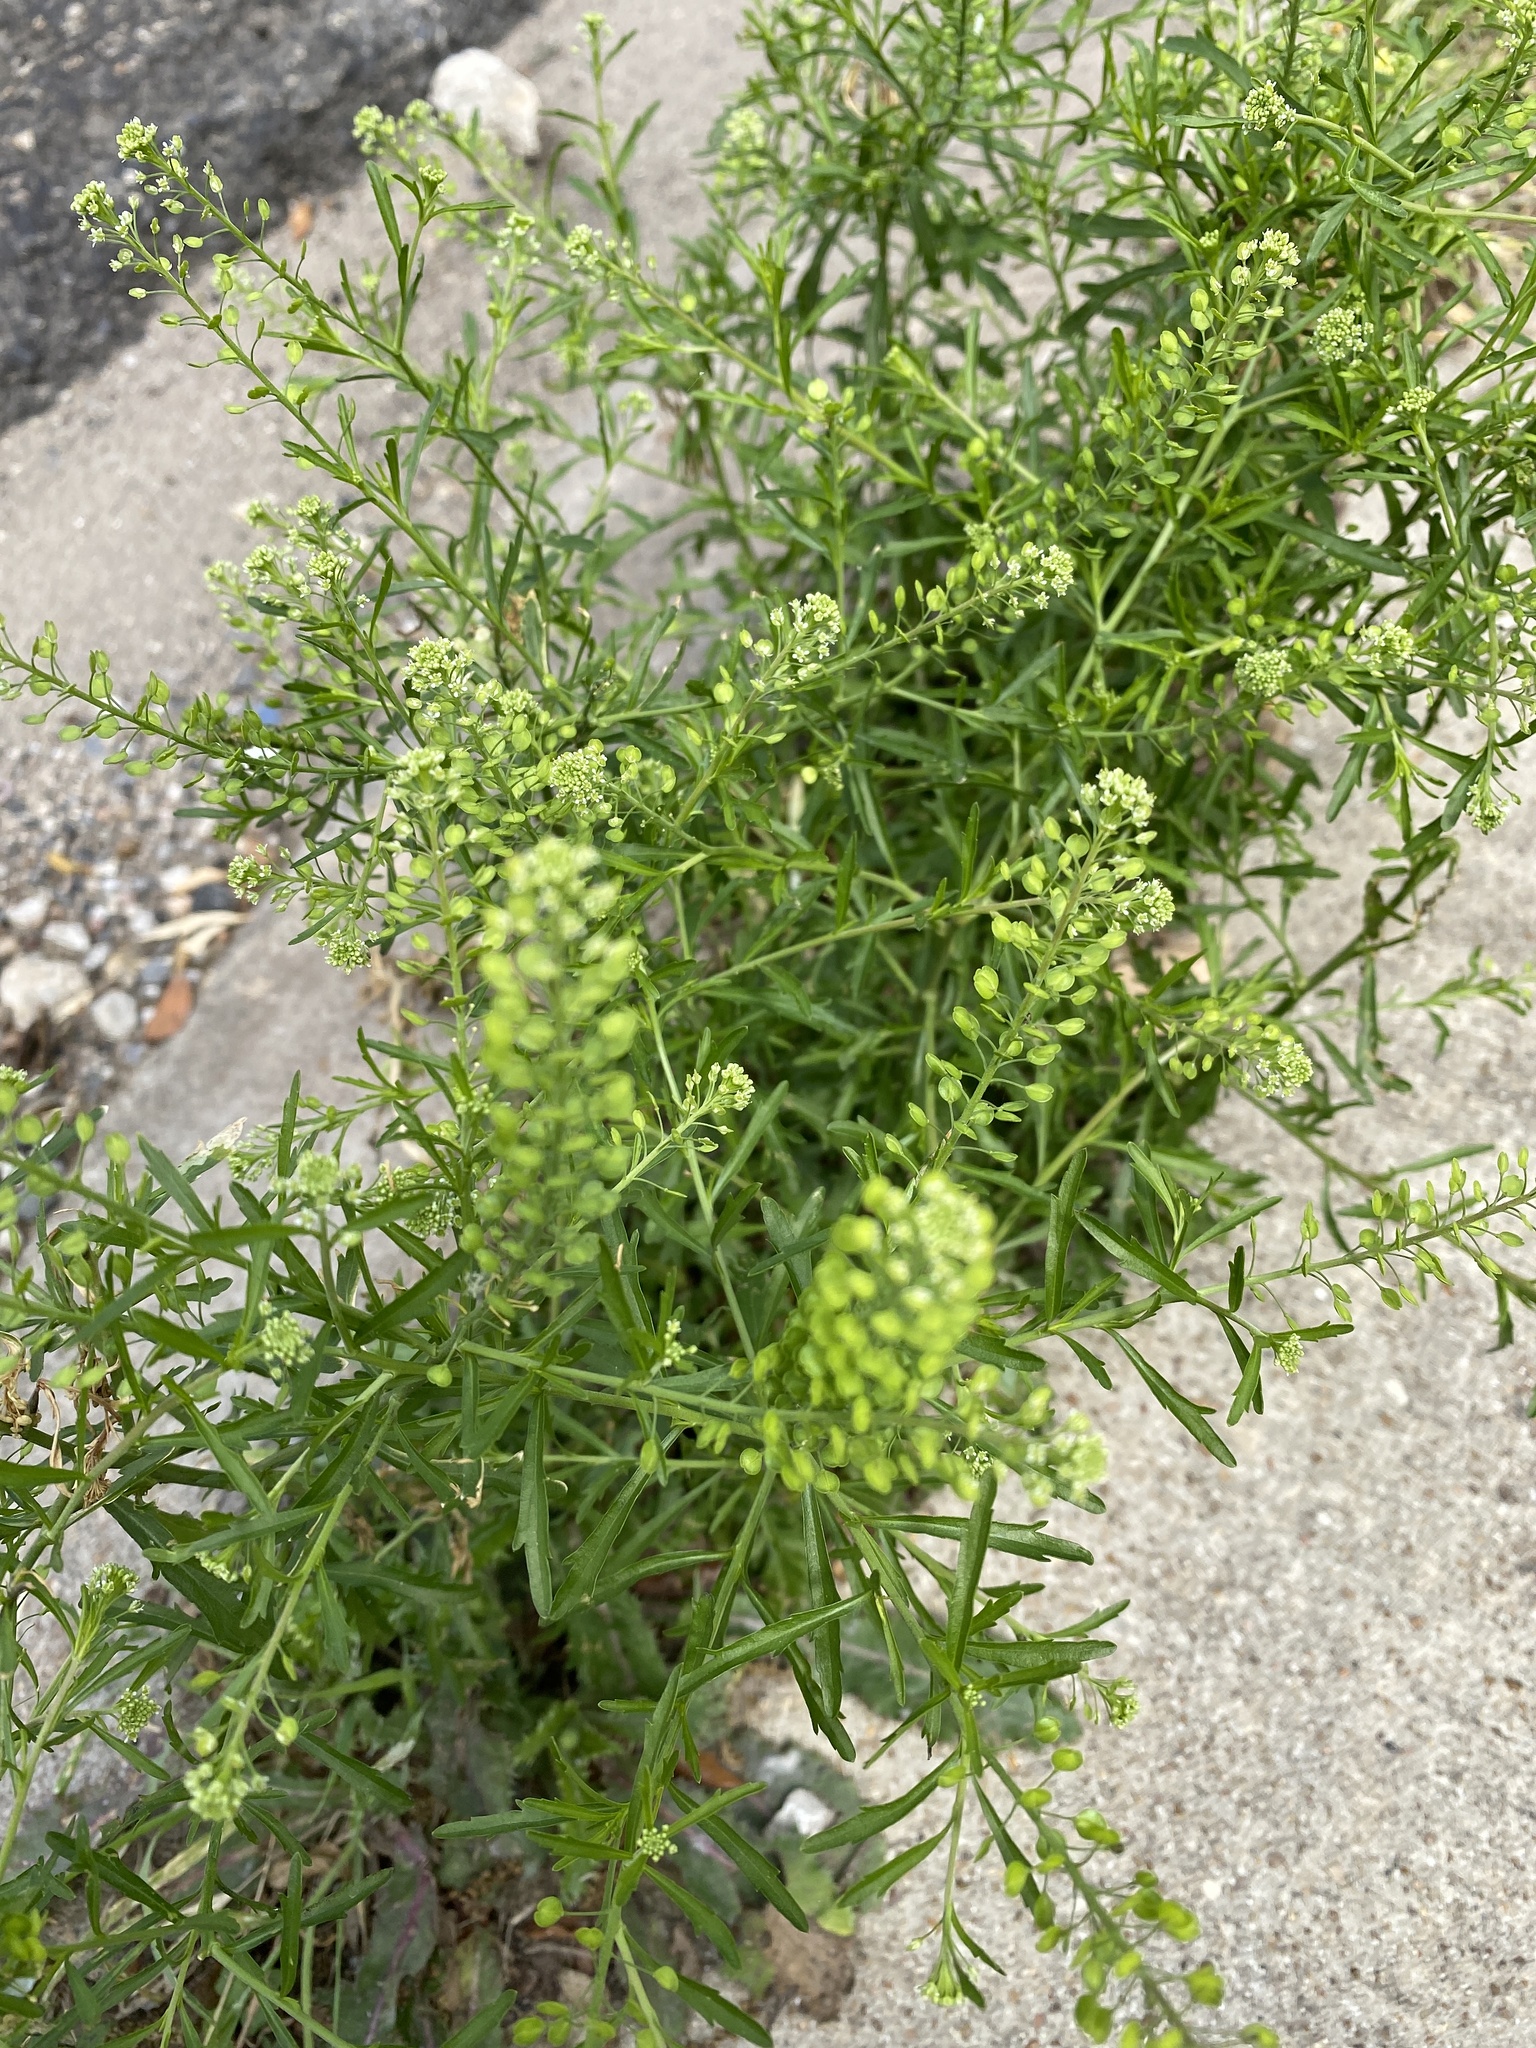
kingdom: Plantae
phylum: Tracheophyta
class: Magnoliopsida
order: Brassicales
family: Brassicaceae
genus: Lepidium
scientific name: Lepidium virginicum
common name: Least pepperwort
